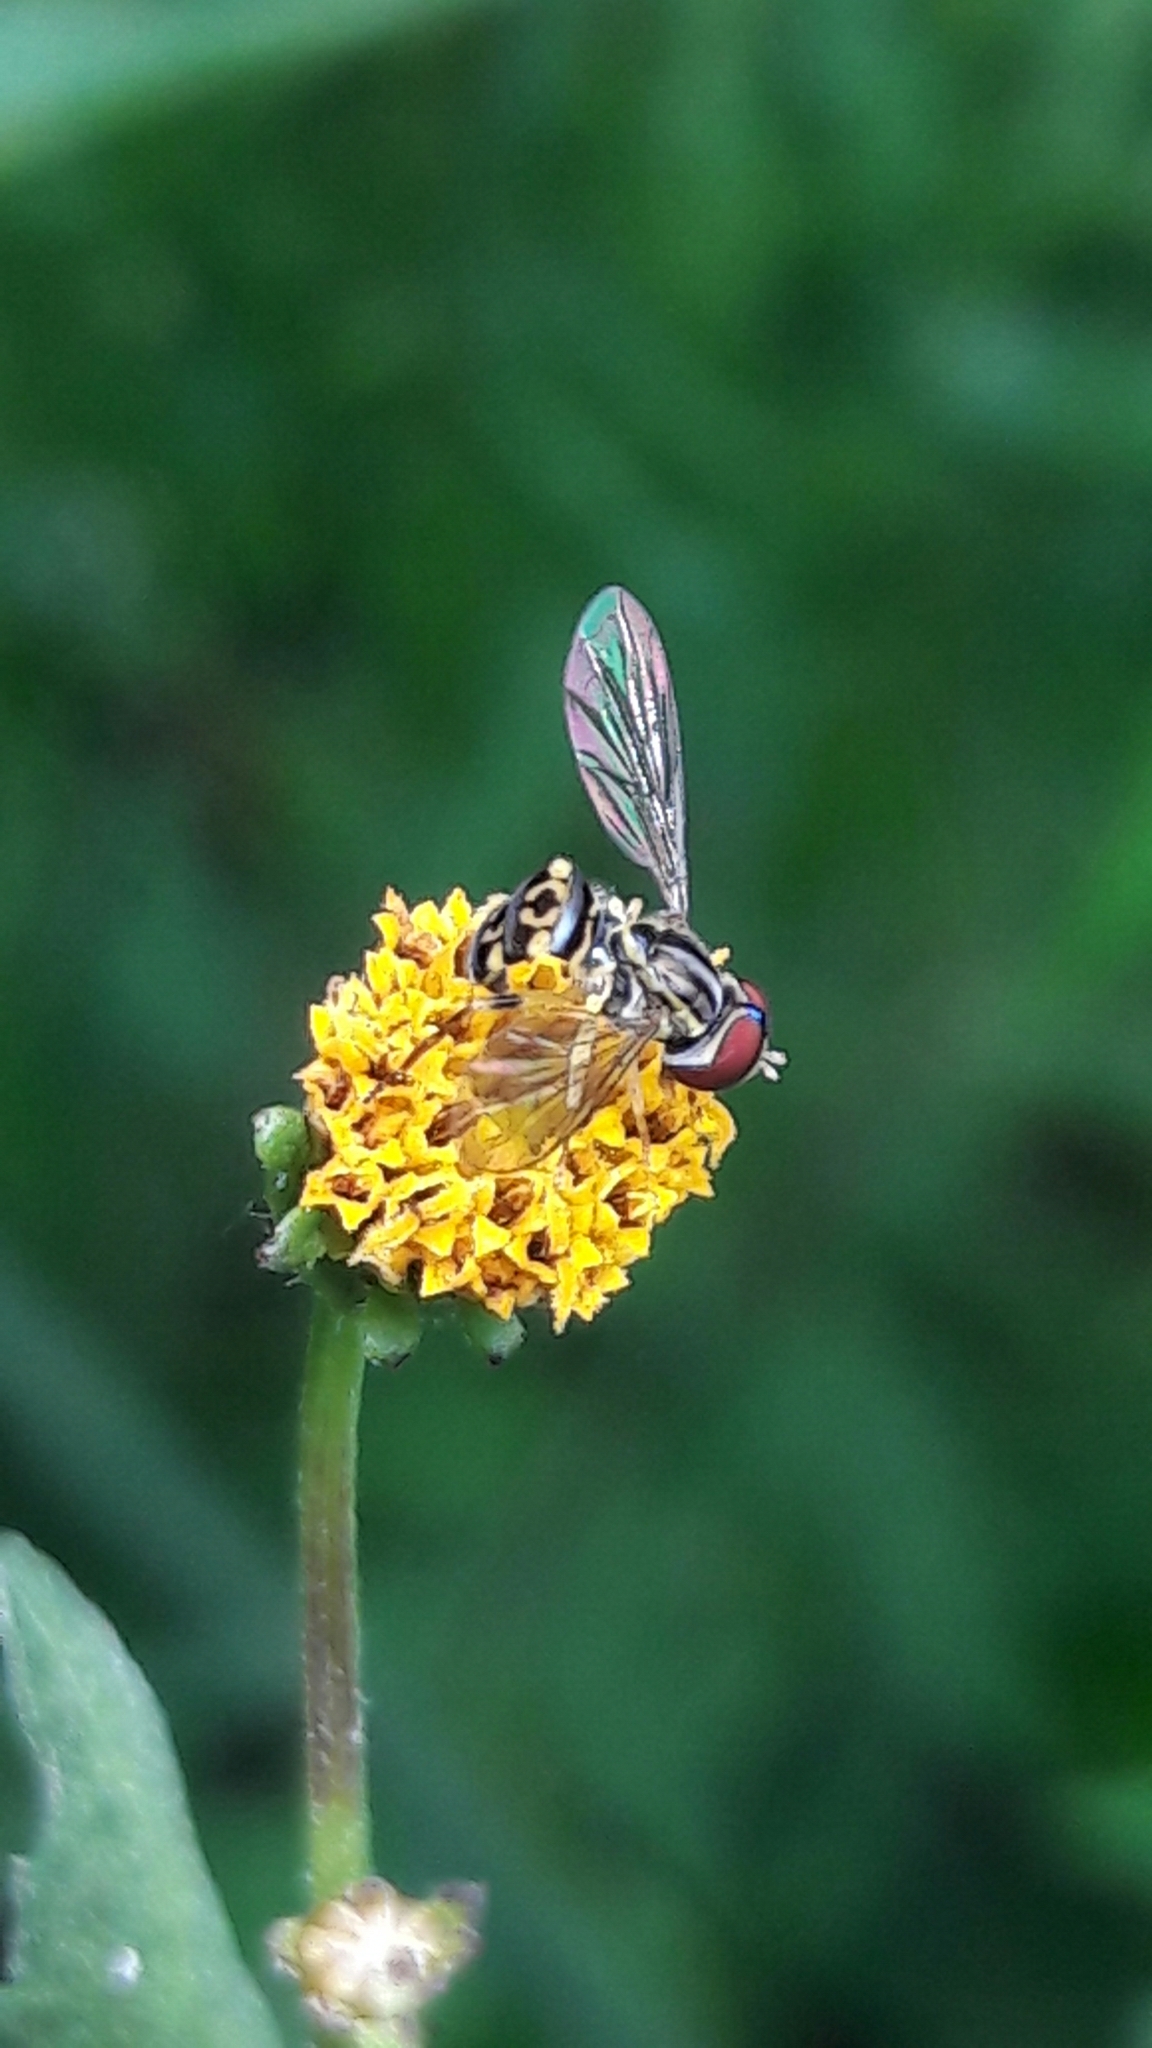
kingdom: Animalia
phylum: Arthropoda
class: Insecta
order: Diptera
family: Syrphidae
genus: Toxomerus
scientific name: Toxomerus virgulatus
